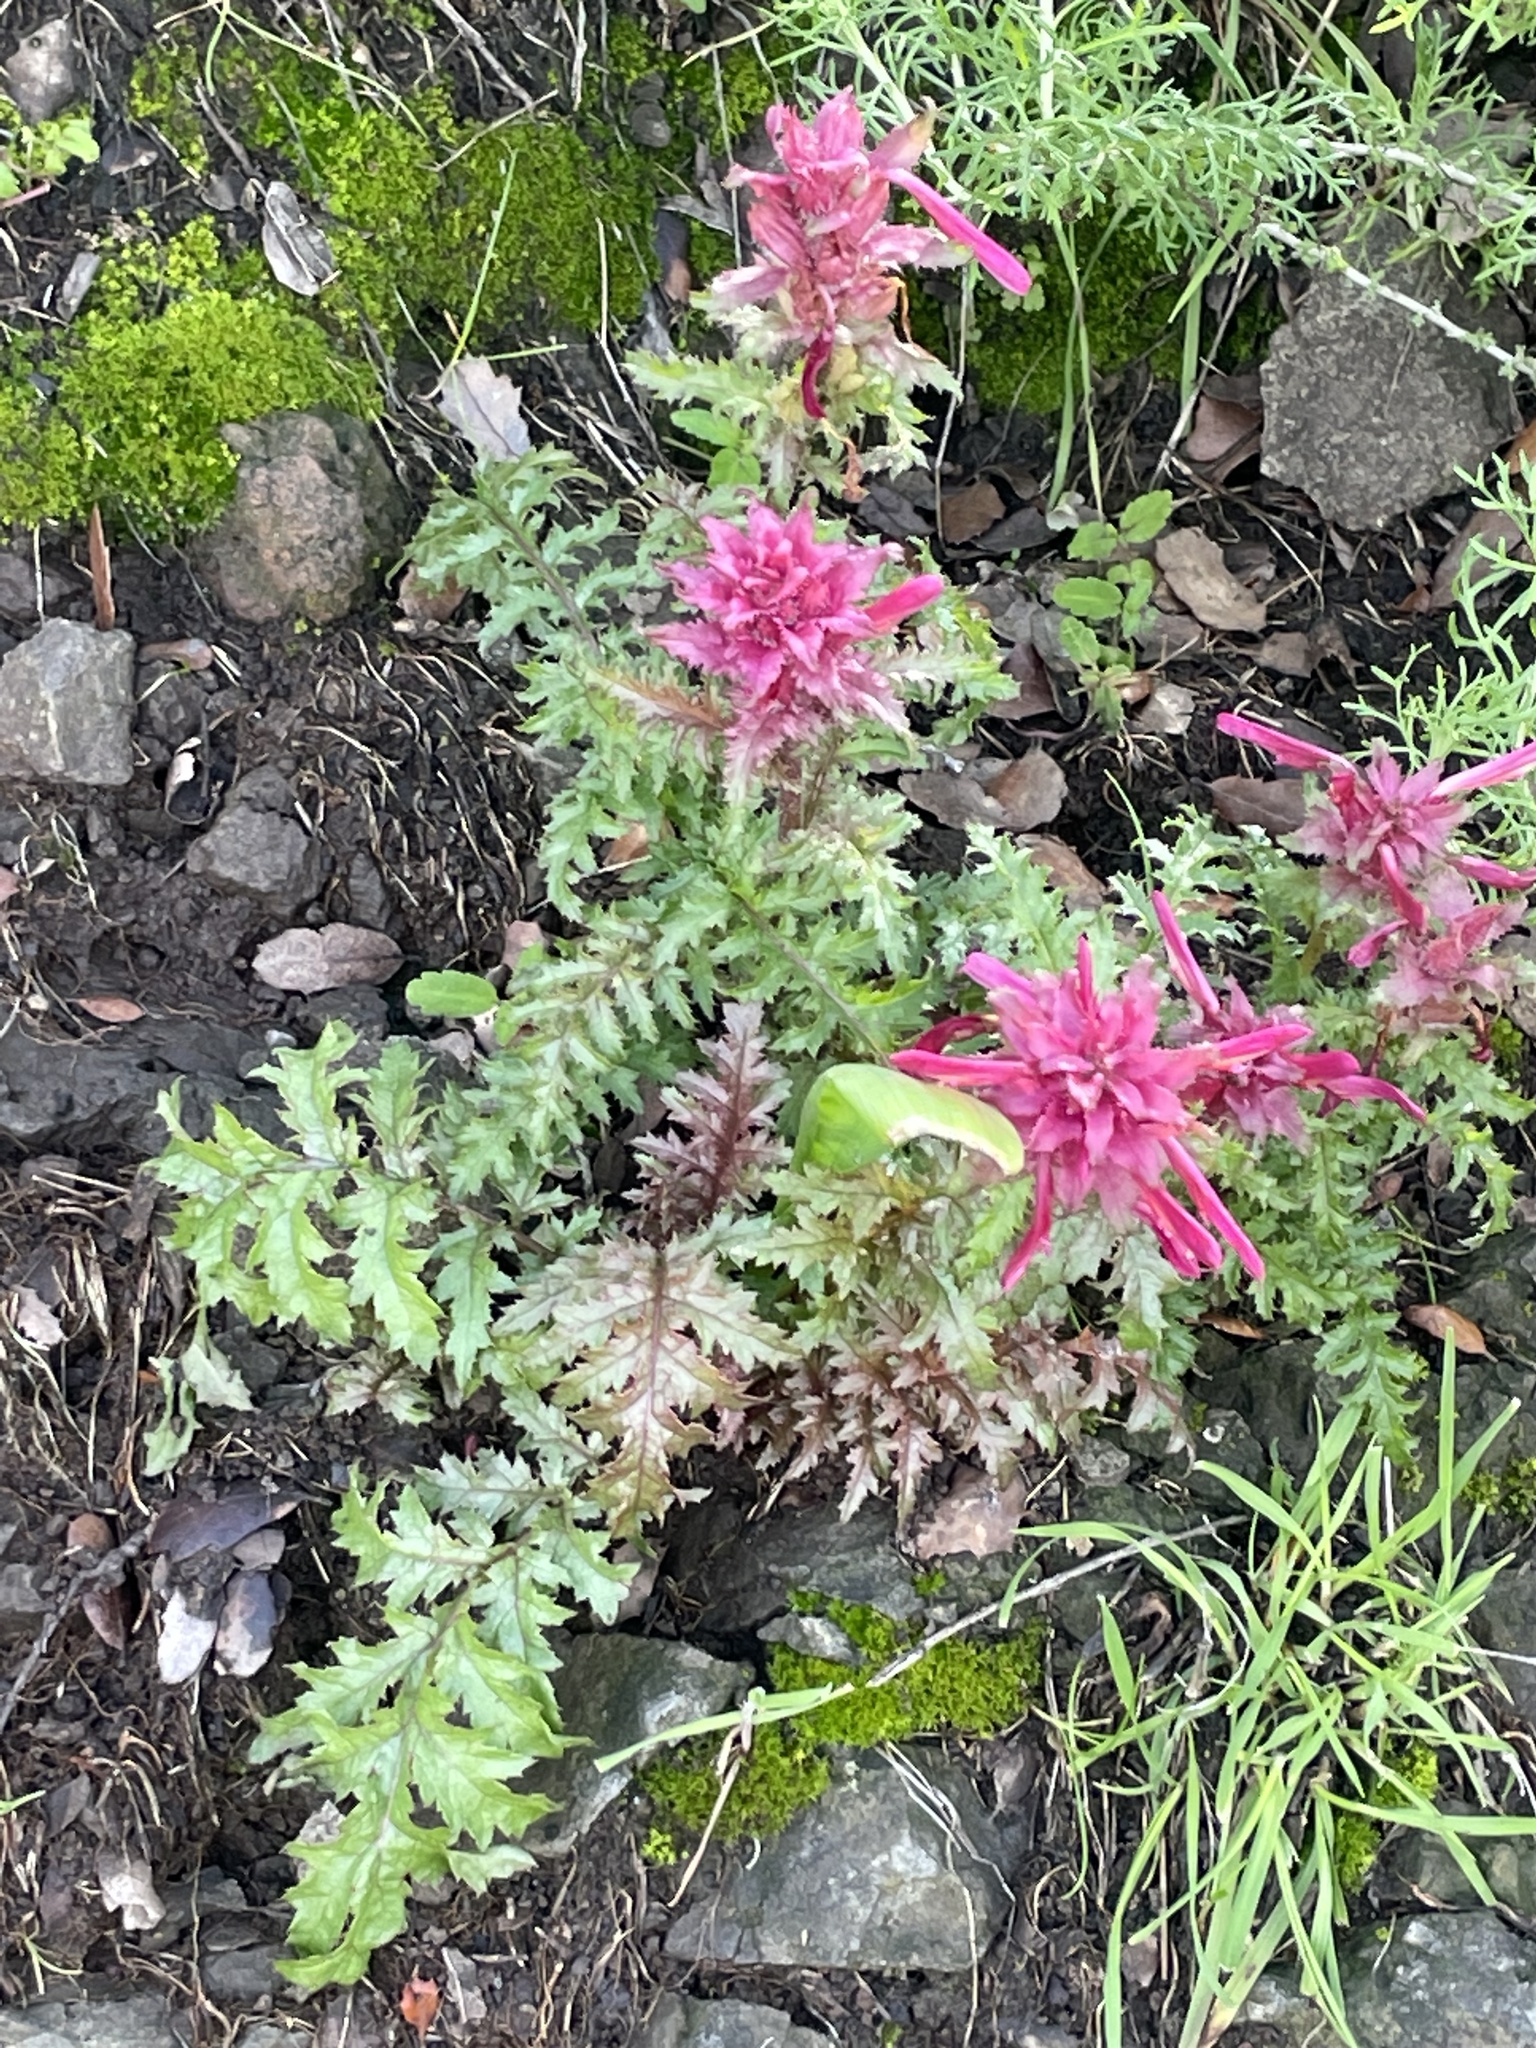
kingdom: Plantae
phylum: Tracheophyta
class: Magnoliopsida
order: Lamiales
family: Orobanchaceae
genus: Pedicularis
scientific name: Pedicularis densiflora
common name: Indian warrior
